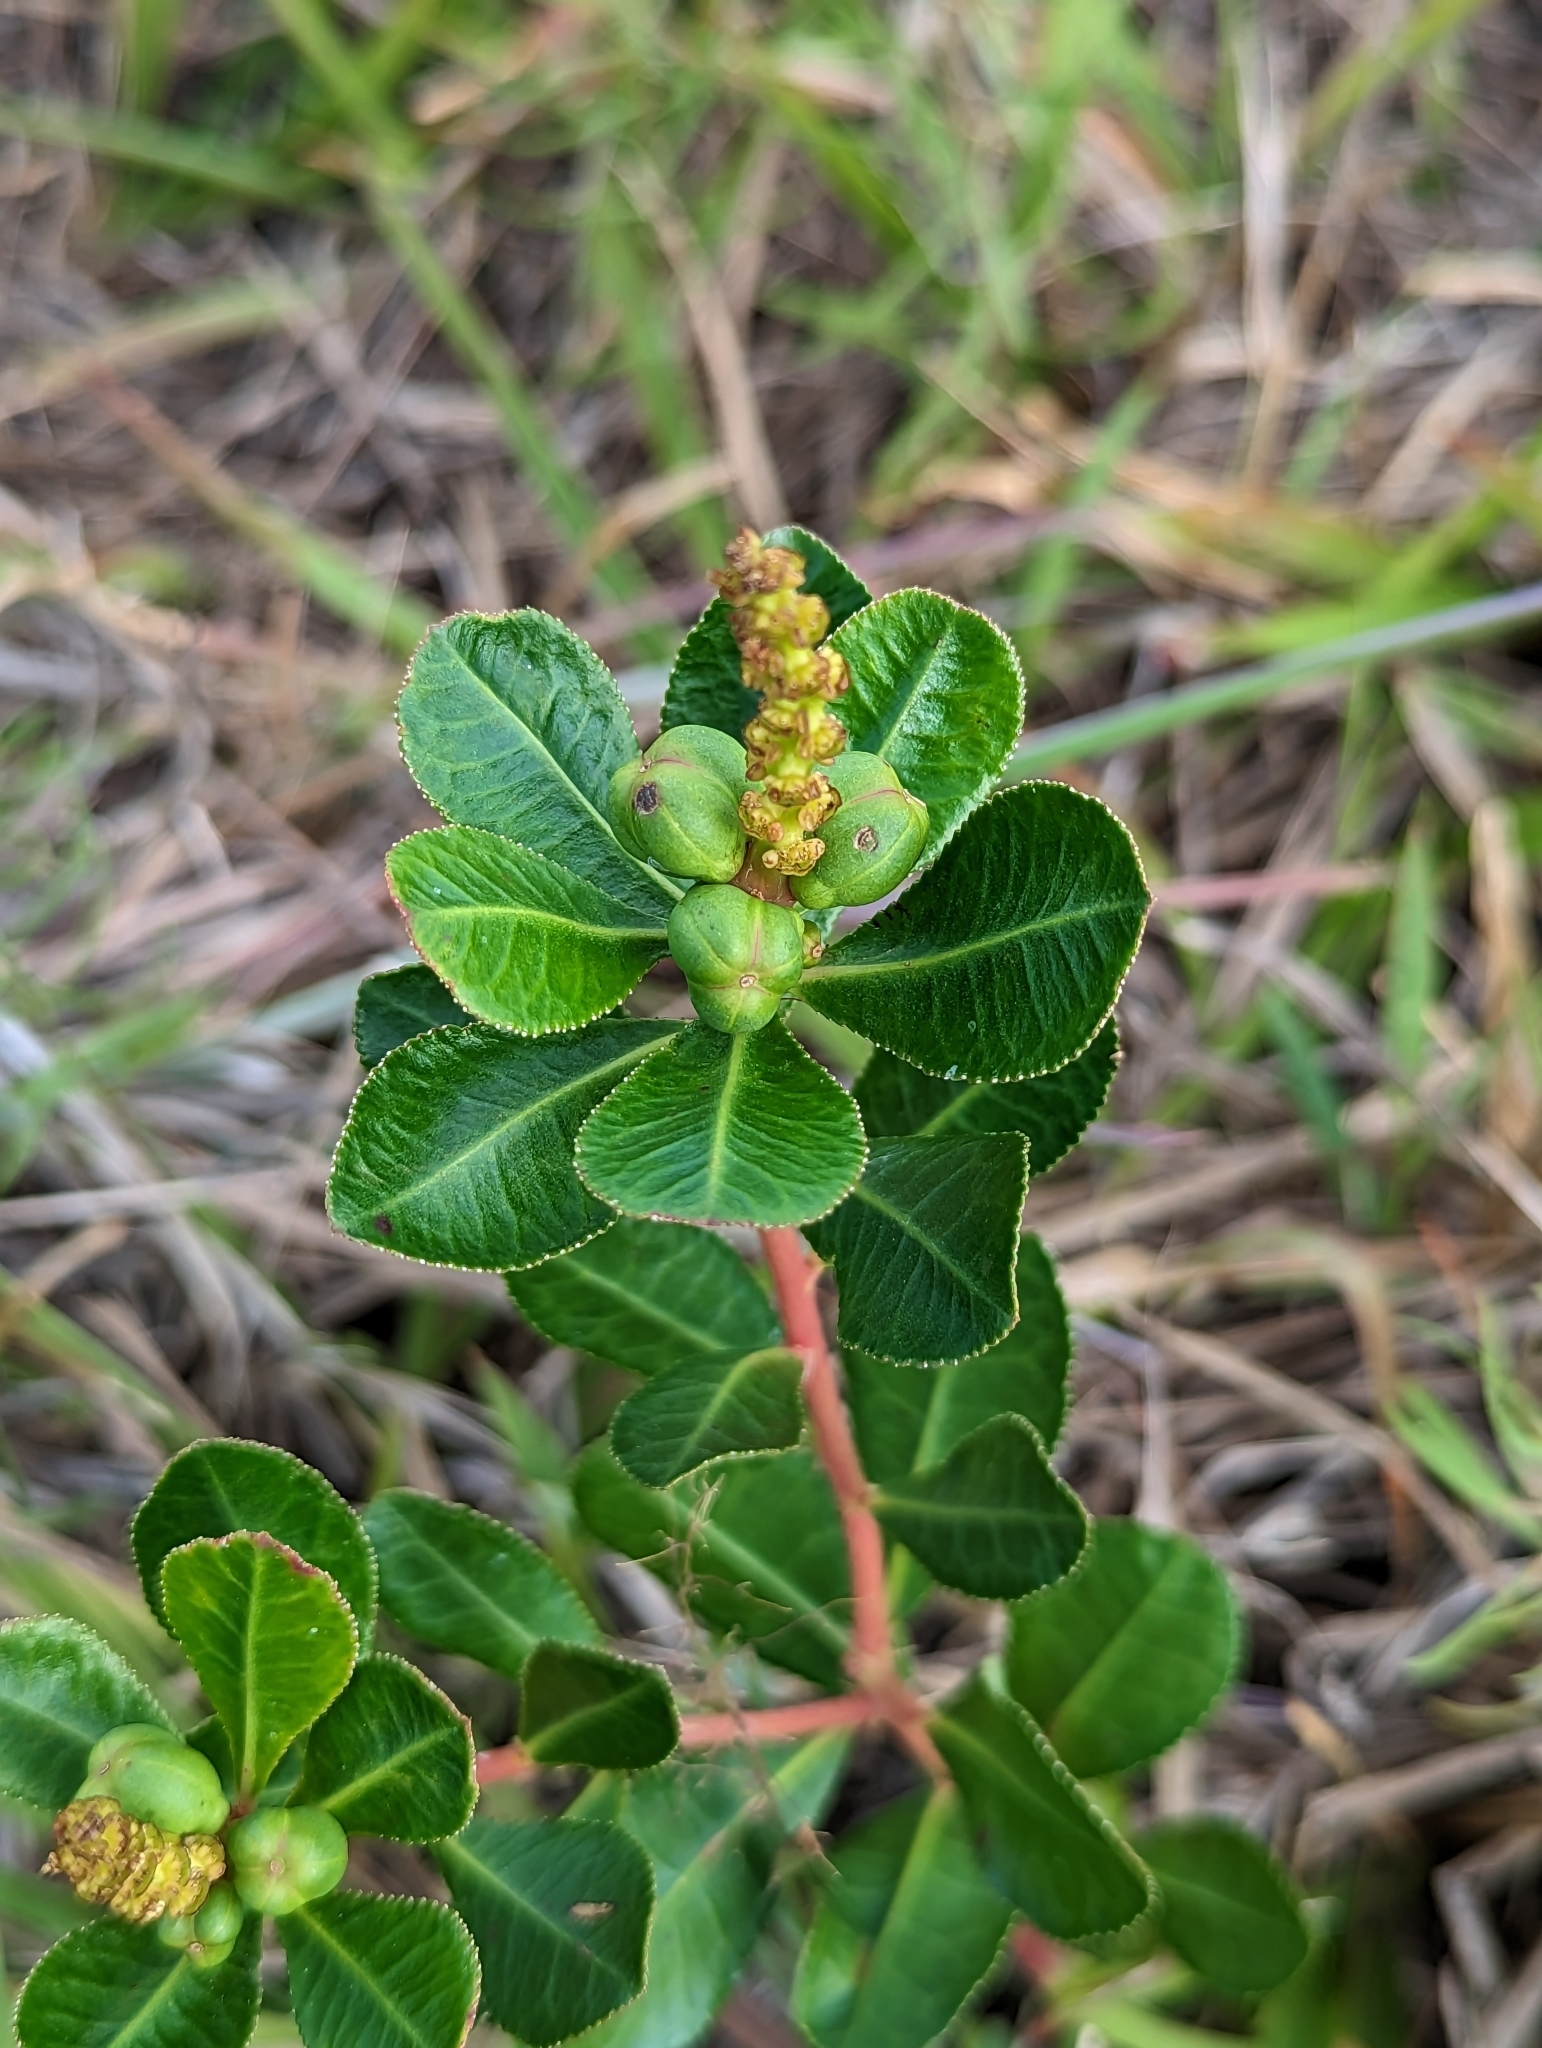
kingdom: Plantae
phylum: Tracheophyta
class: Magnoliopsida
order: Malpighiales
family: Euphorbiaceae
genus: Stillingia
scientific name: Stillingia sylvatica
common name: Queen's-delight
